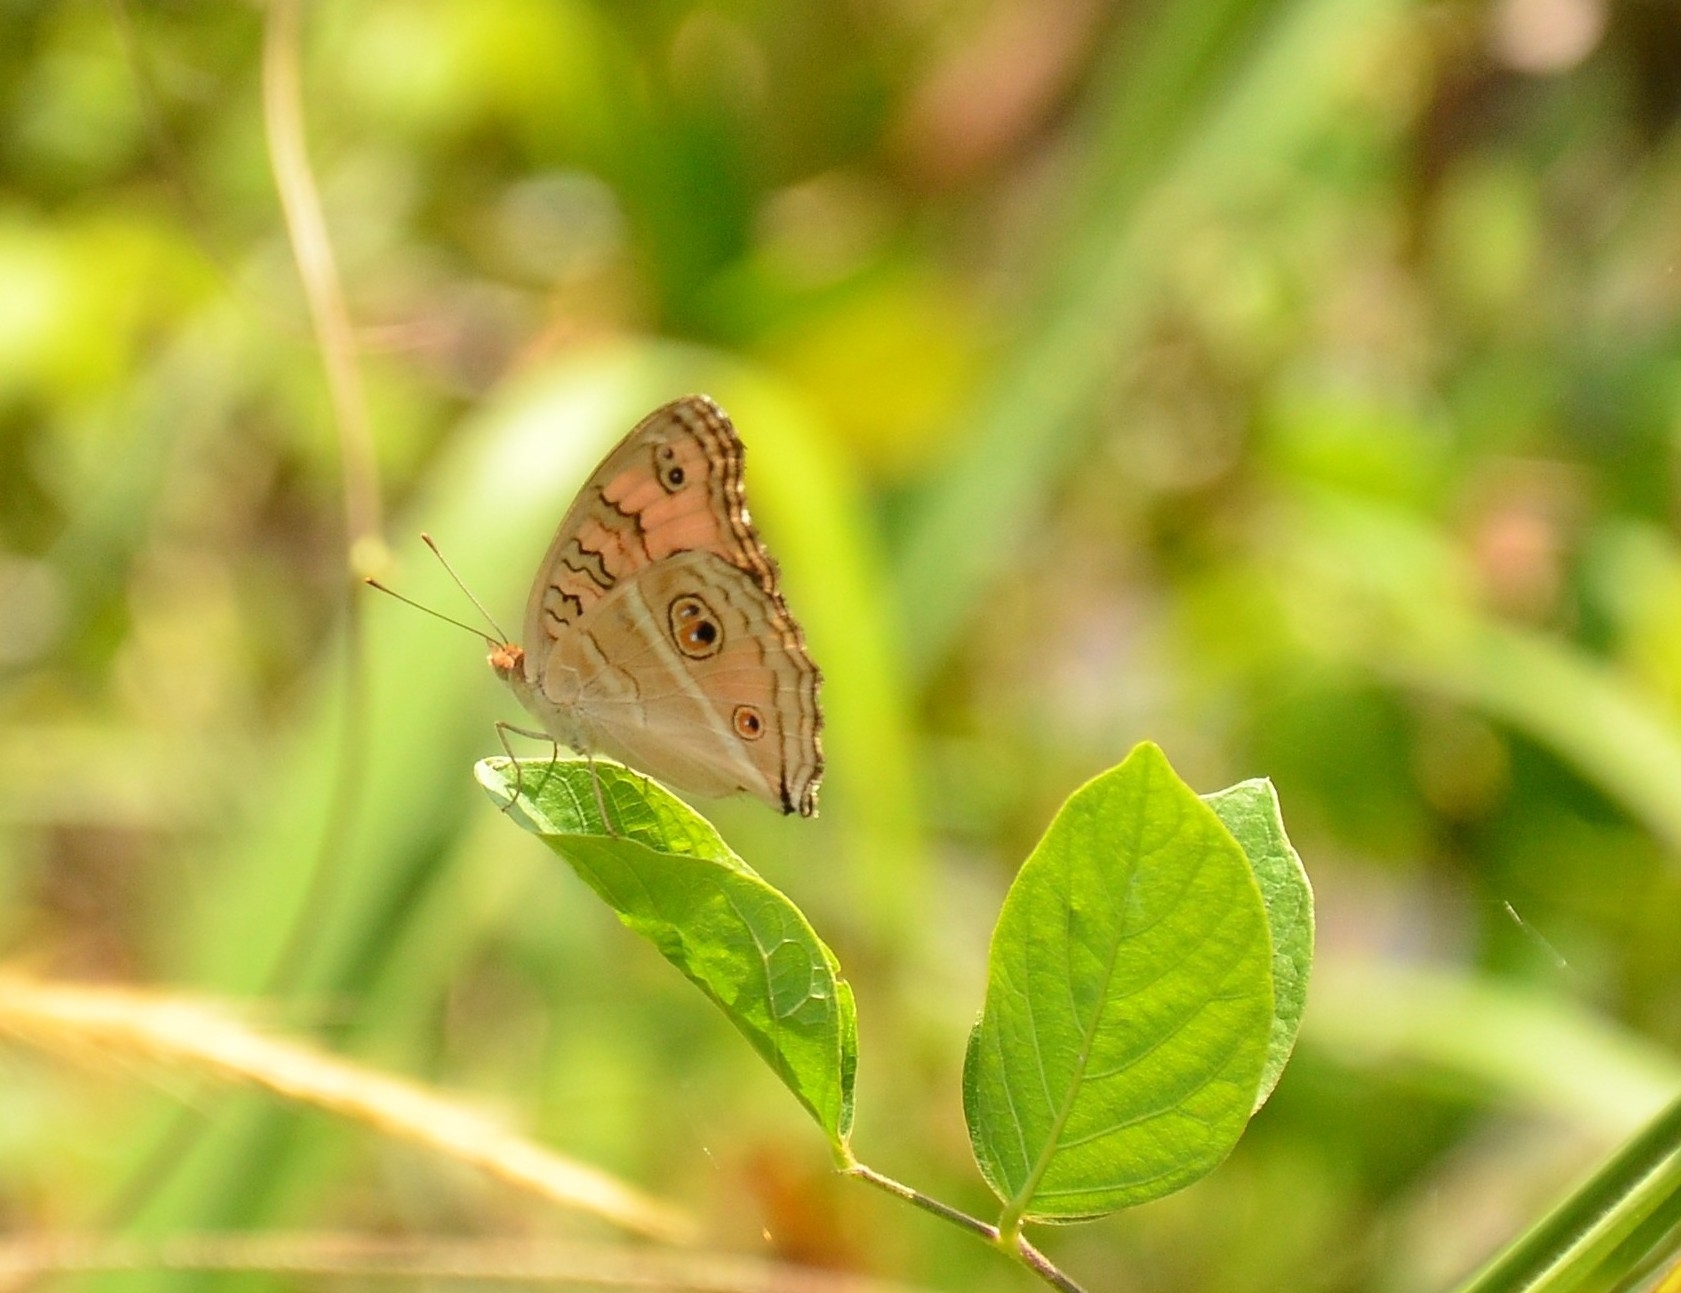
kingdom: Animalia
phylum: Arthropoda
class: Insecta
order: Lepidoptera
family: Nymphalidae
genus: Junonia
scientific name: Junonia almana
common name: Peacock pansy
